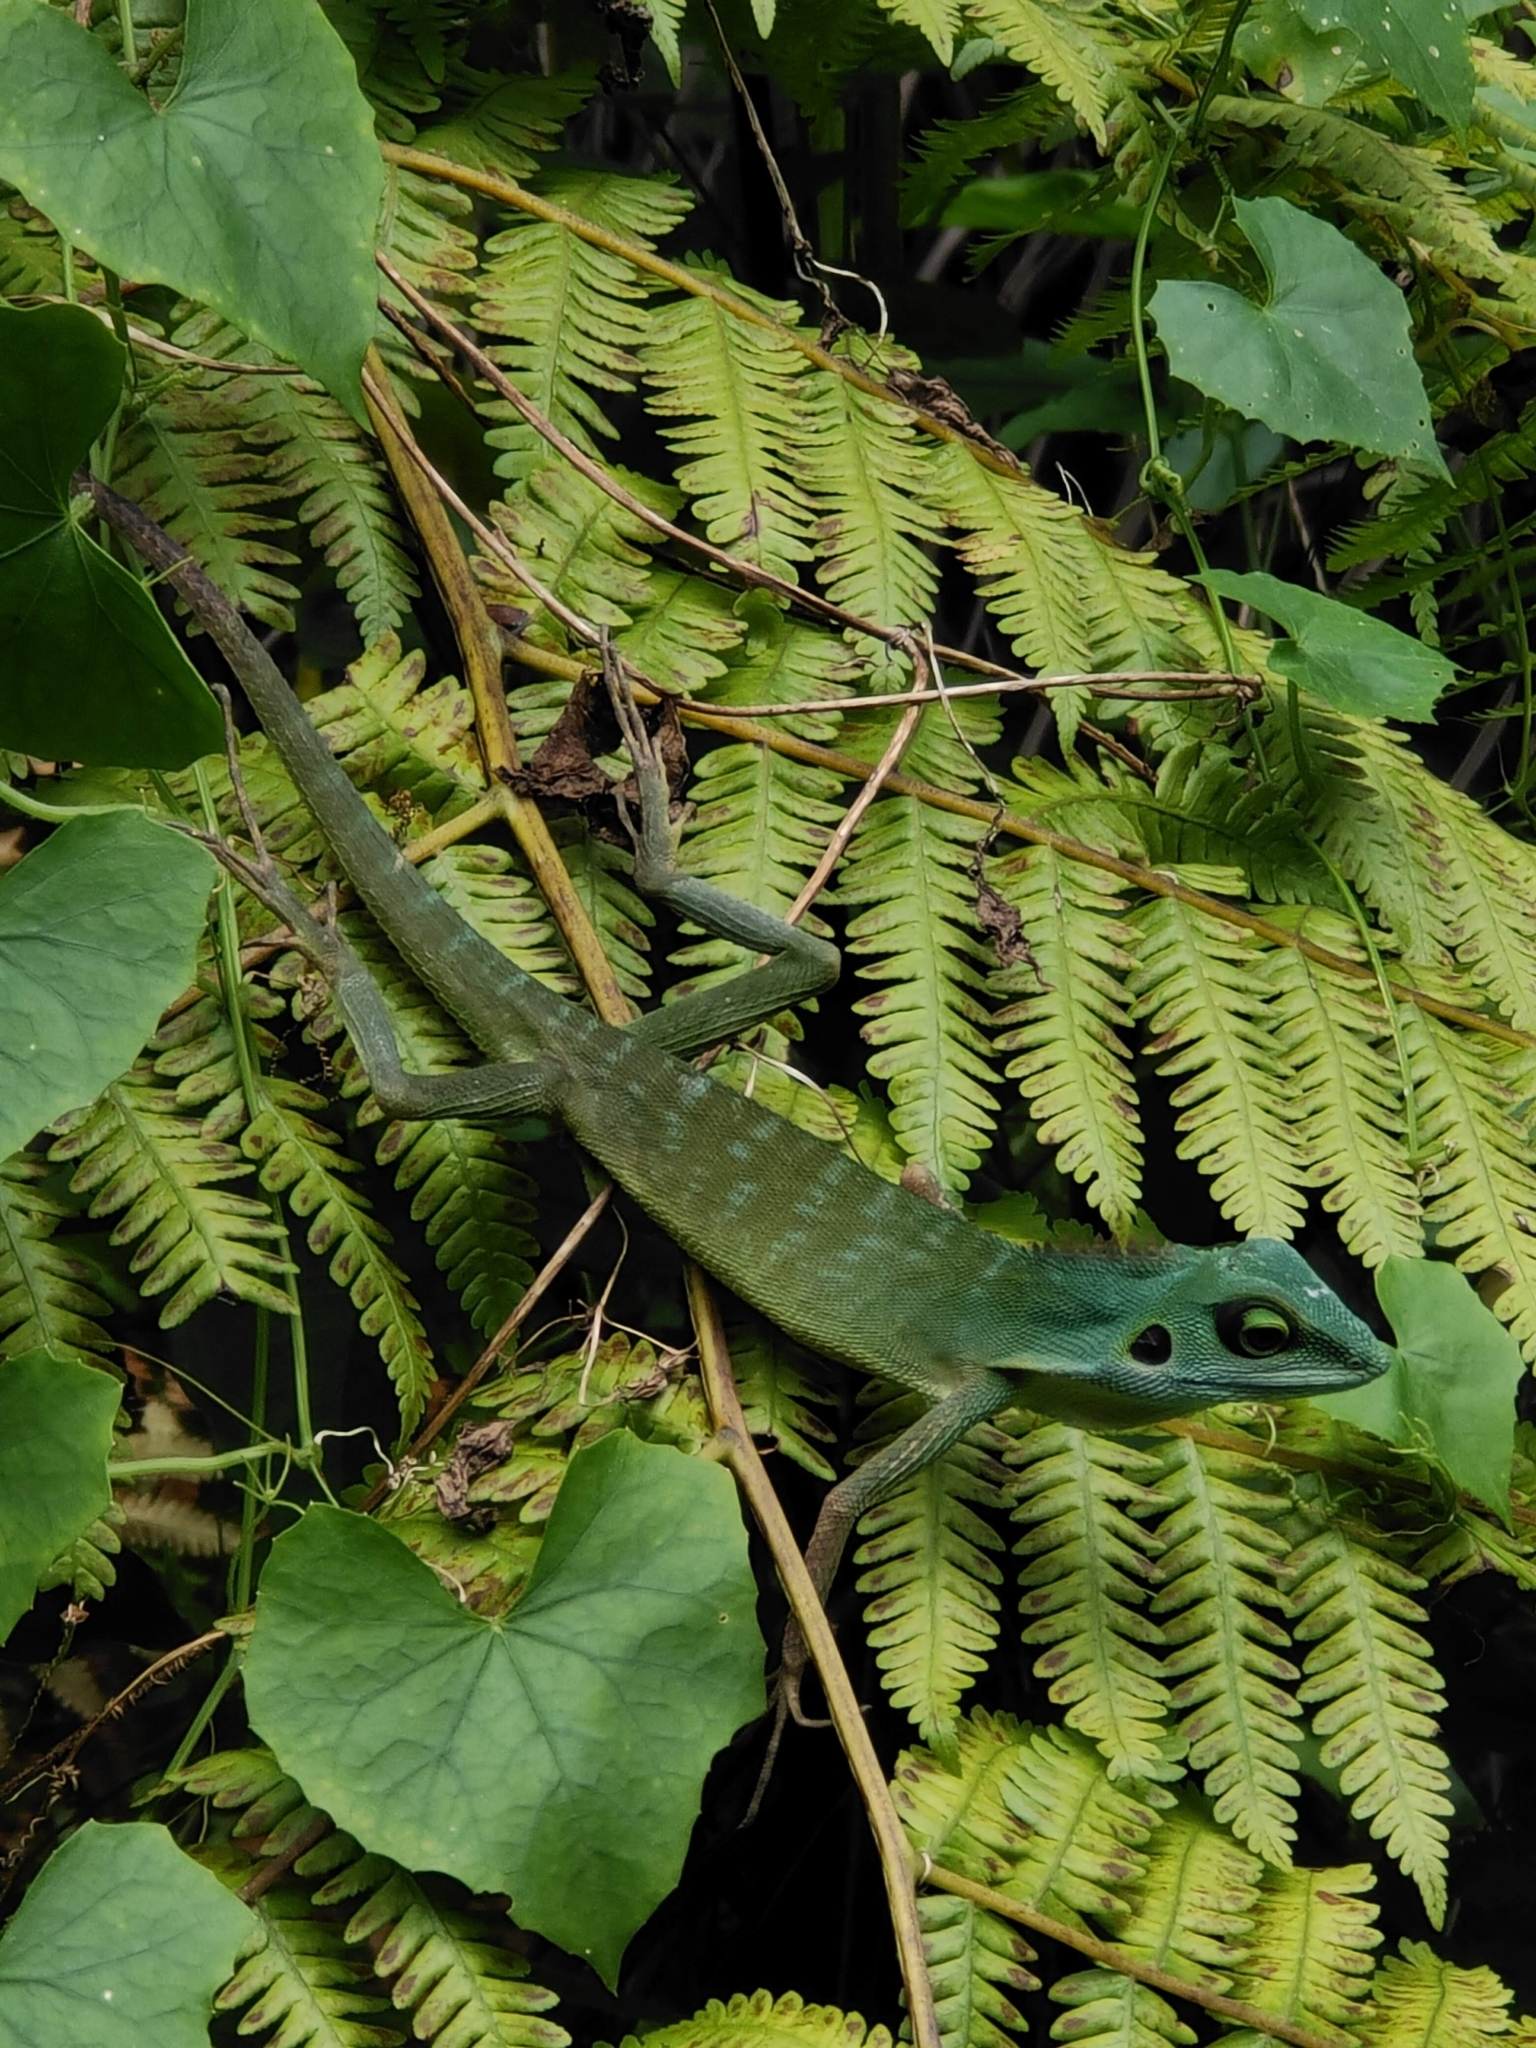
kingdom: Animalia
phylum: Chordata
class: Squamata
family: Agamidae
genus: Bronchocela
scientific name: Bronchocela cristatella
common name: Green crested lizard
